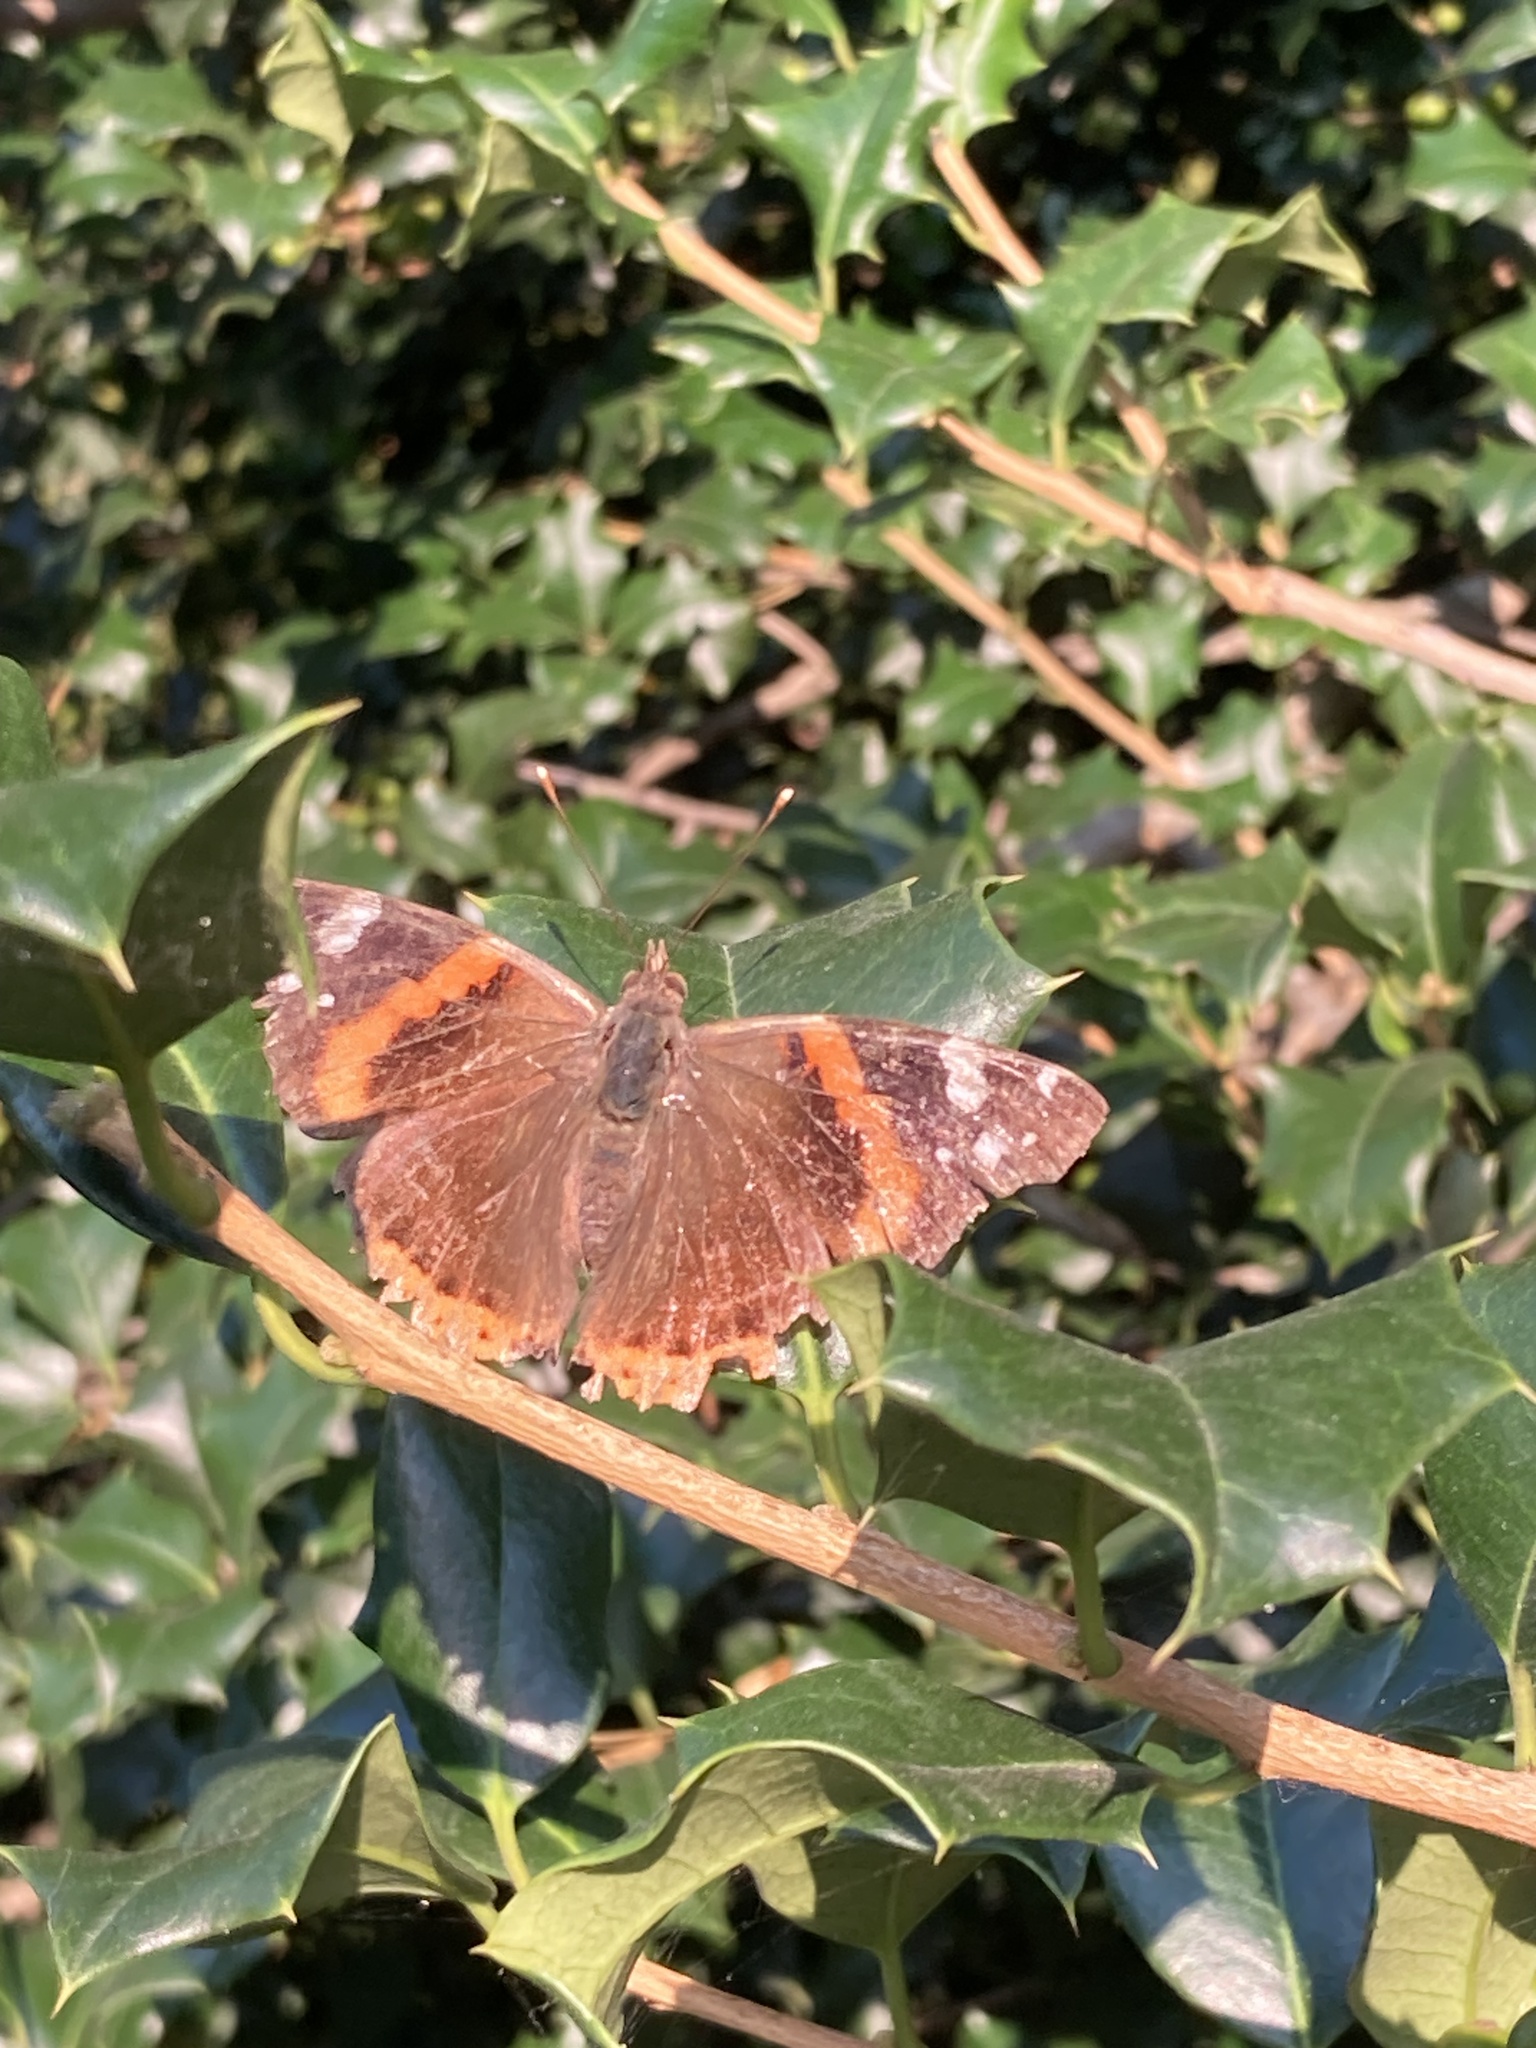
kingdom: Animalia
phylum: Arthropoda
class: Insecta
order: Lepidoptera
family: Nymphalidae
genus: Vanessa
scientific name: Vanessa atalanta
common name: Red admiral
